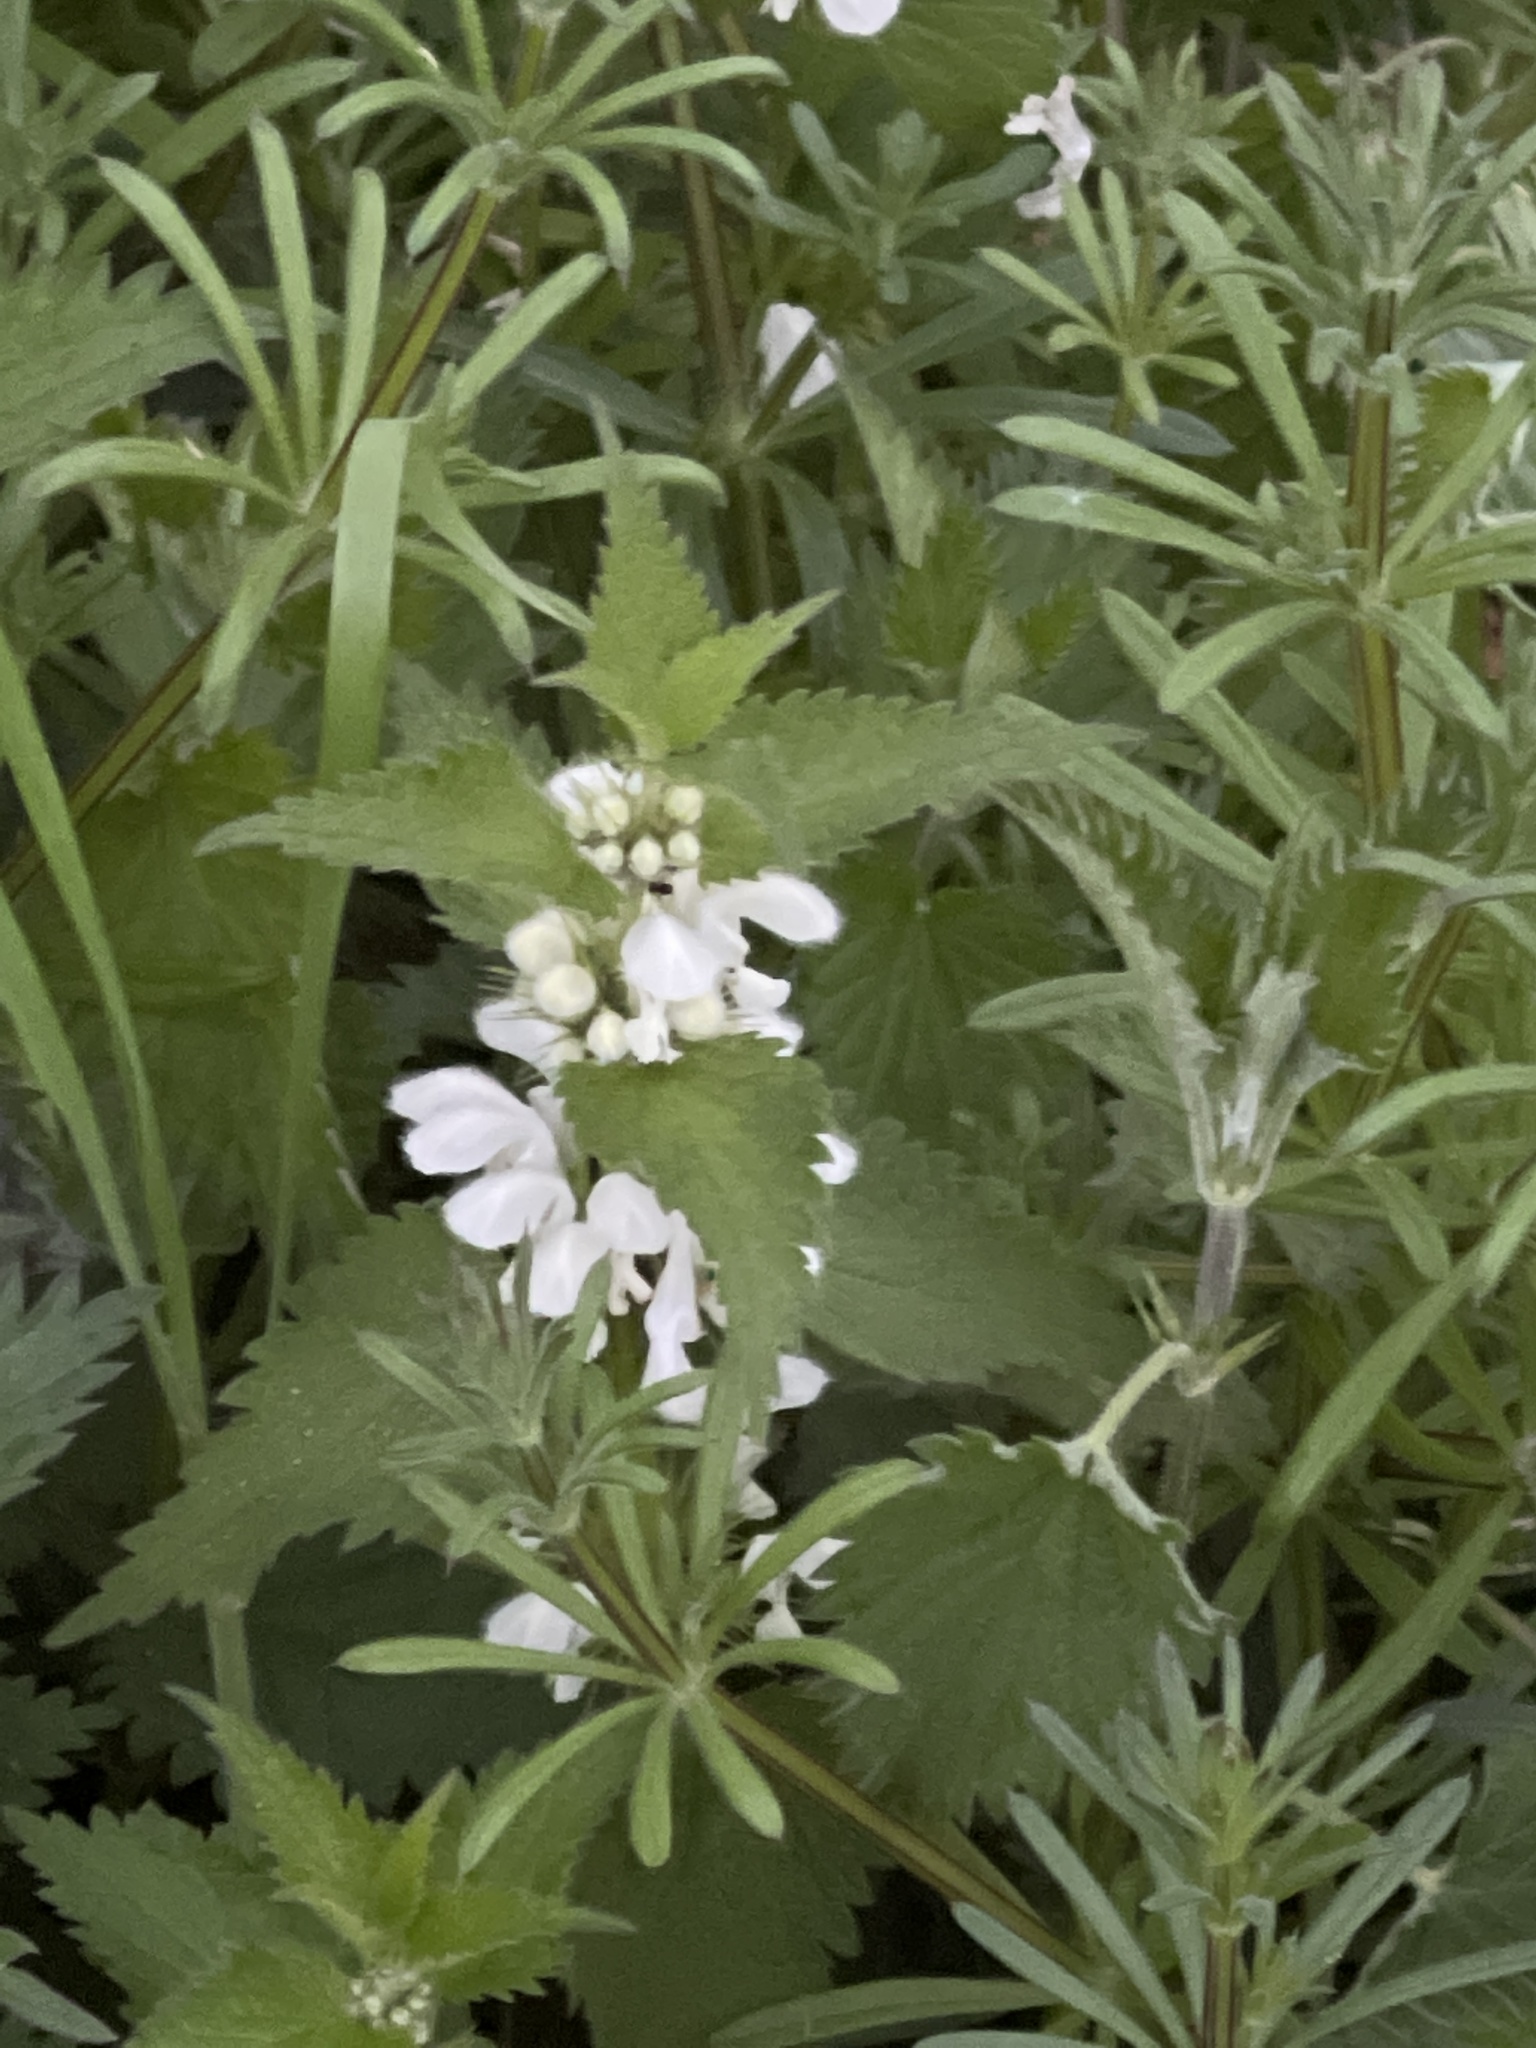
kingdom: Plantae
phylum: Tracheophyta
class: Magnoliopsida
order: Lamiales
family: Lamiaceae
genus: Lamium
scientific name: Lamium album
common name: White dead-nettle
